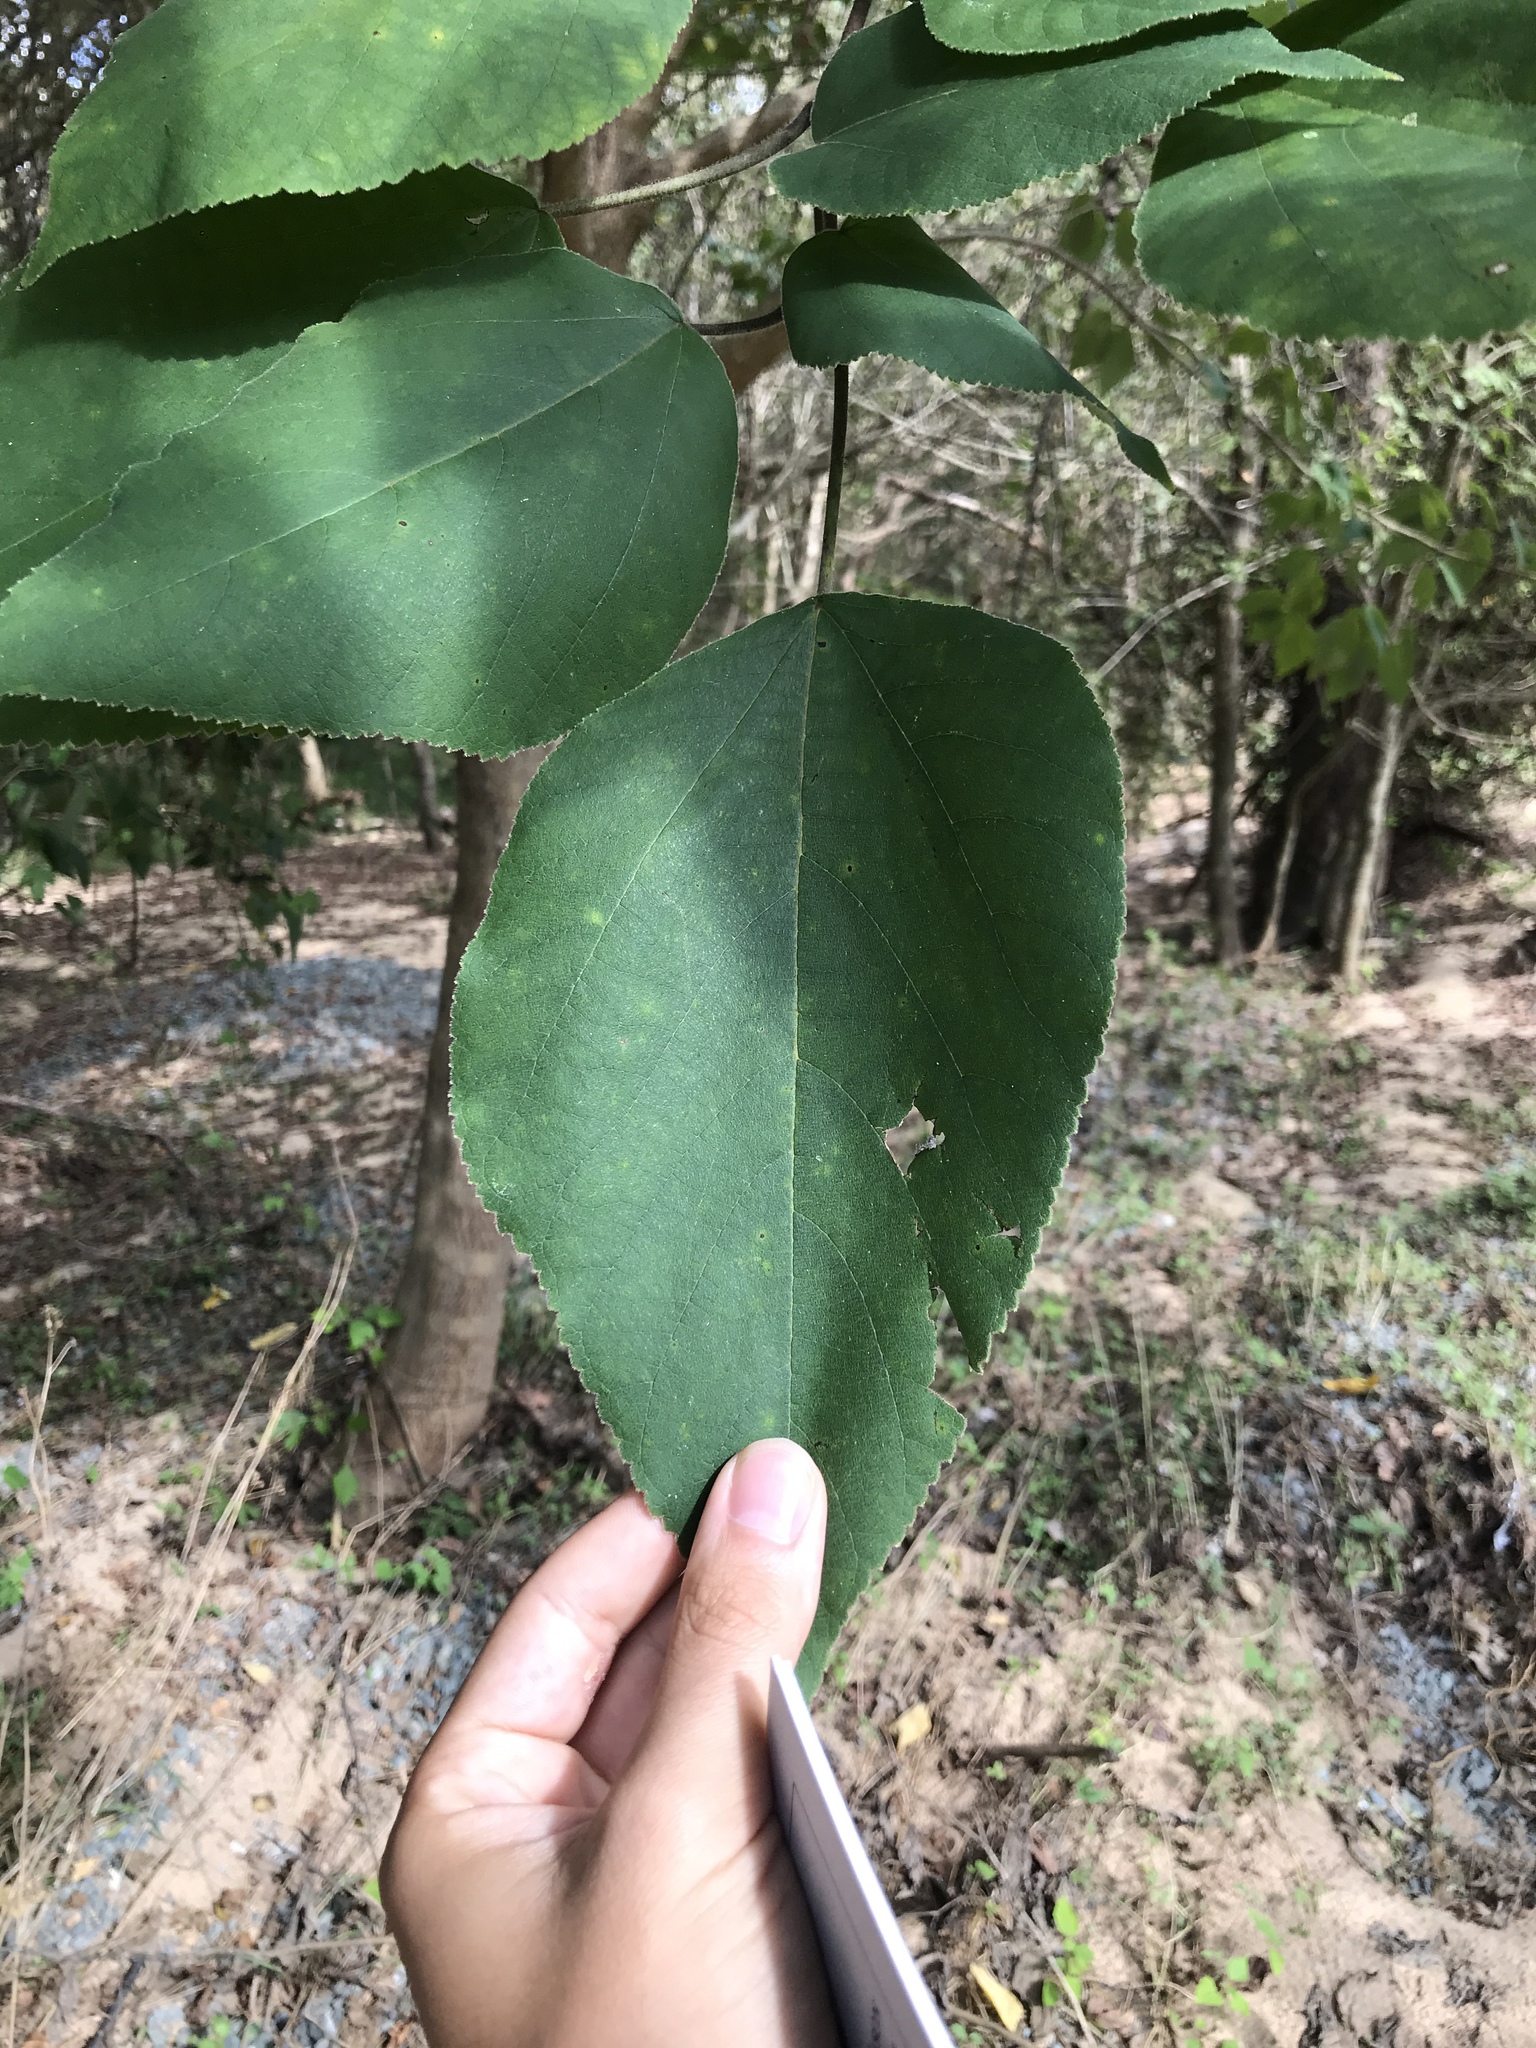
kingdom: Plantae
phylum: Tracheophyta
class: Magnoliopsida
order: Rosales
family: Moraceae
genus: Broussonetia
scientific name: Broussonetia papyrifera
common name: Paper mulberry
